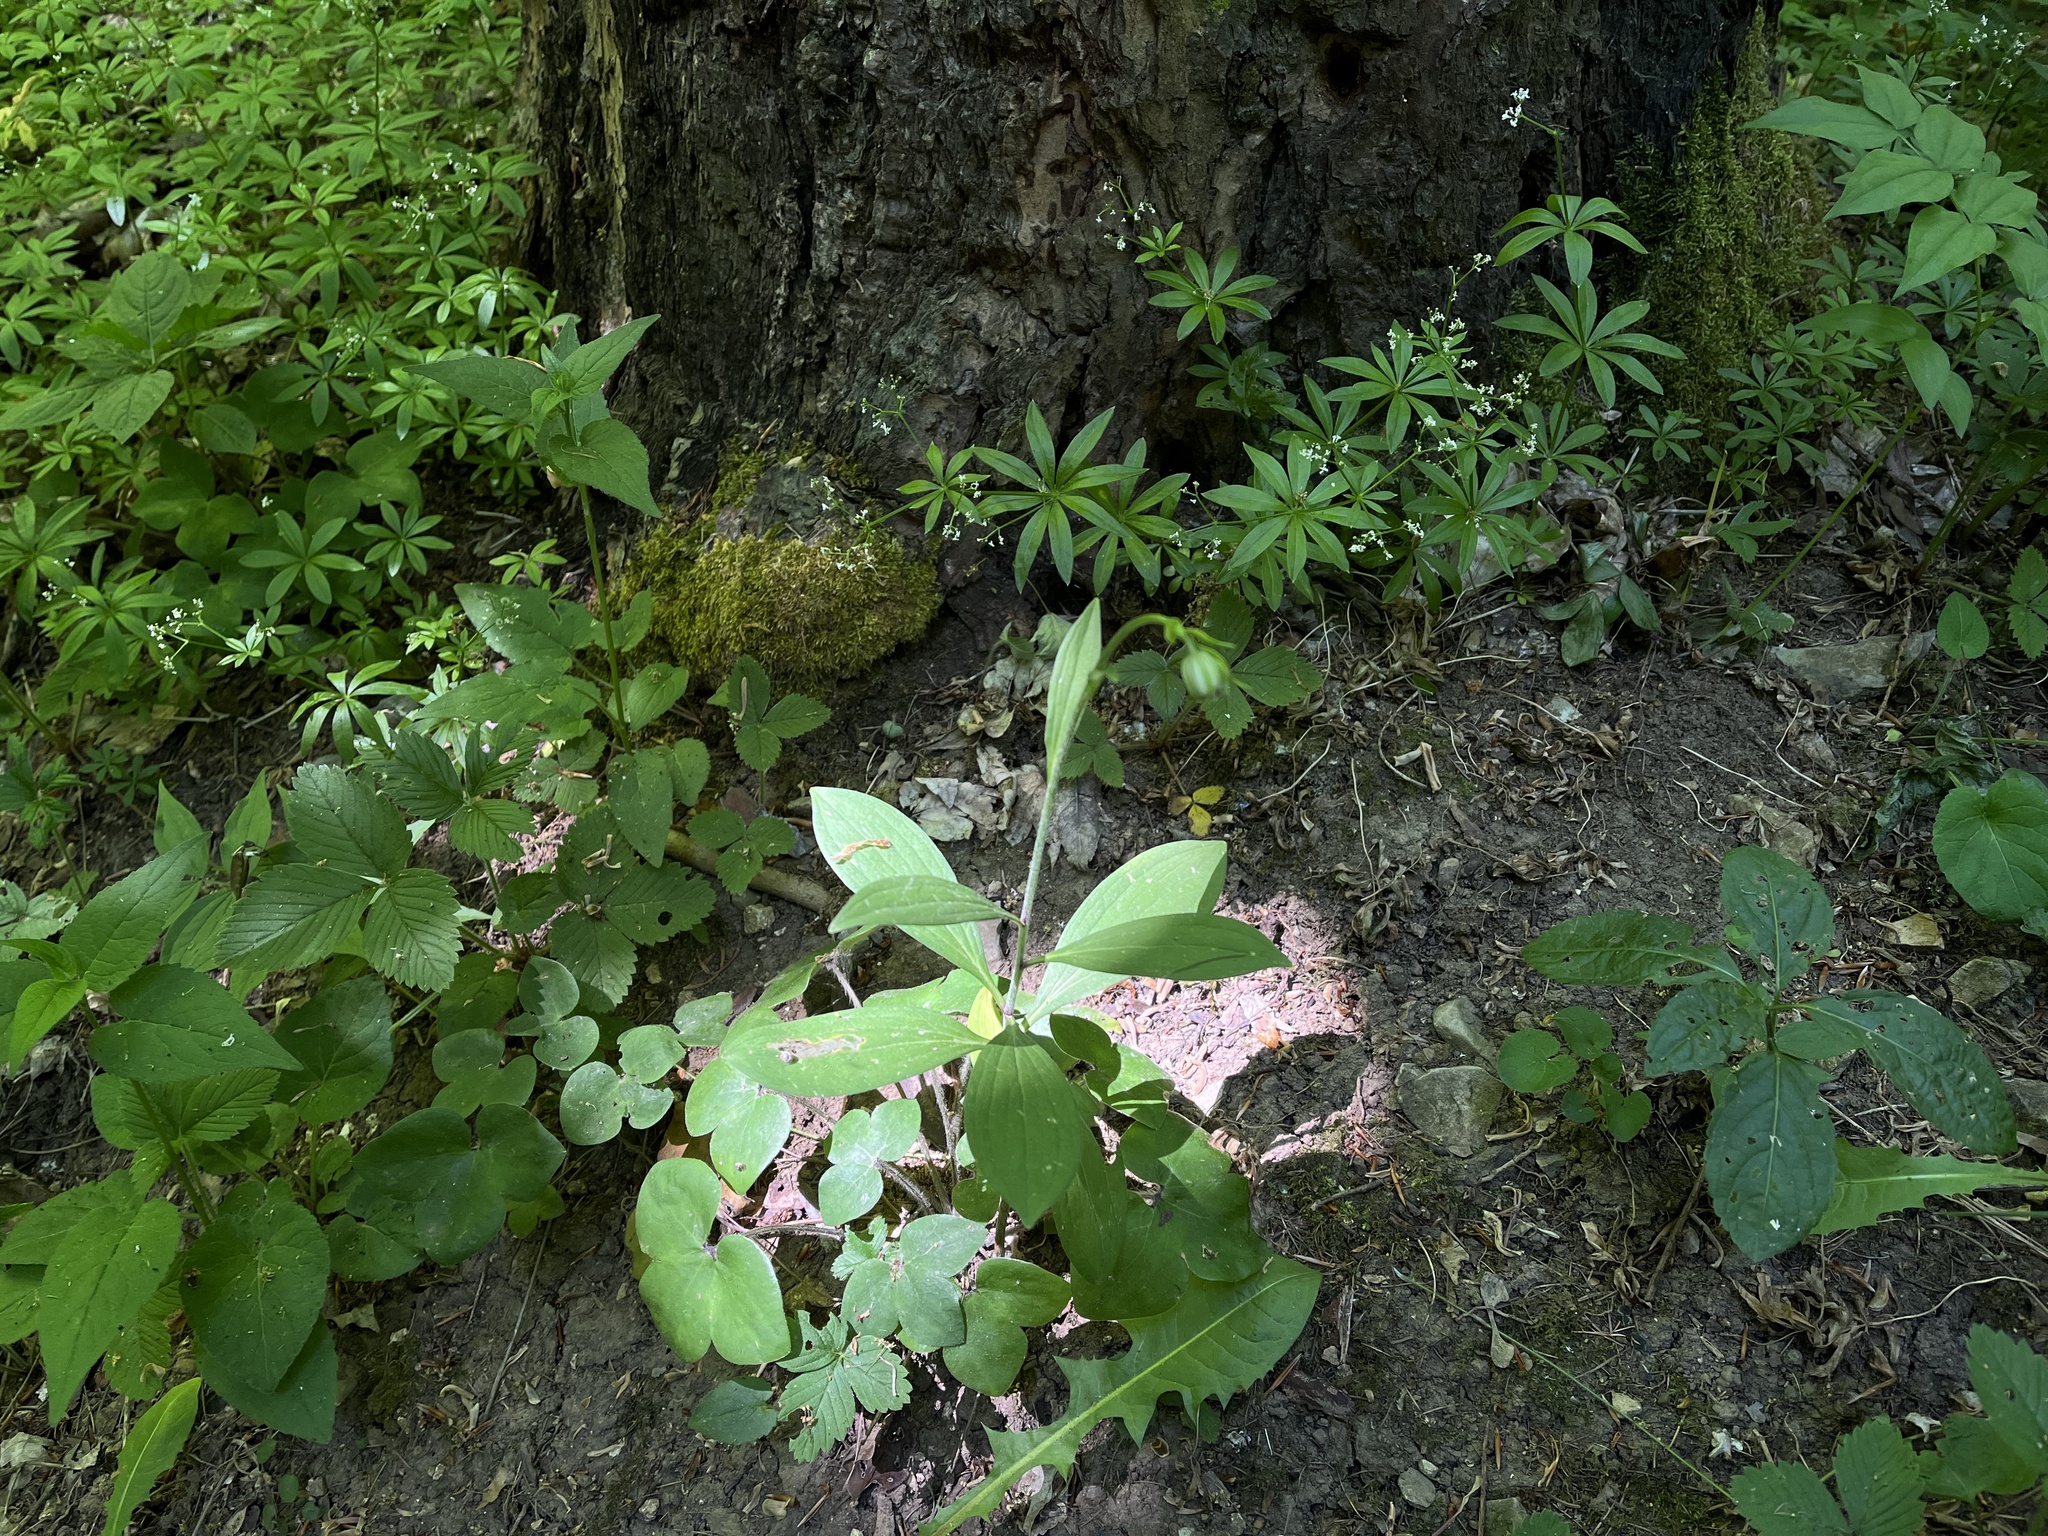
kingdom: Plantae
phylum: Tracheophyta
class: Liliopsida
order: Liliales
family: Liliaceae
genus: Lilium
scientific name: Lilium martagon
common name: Martagon lily
